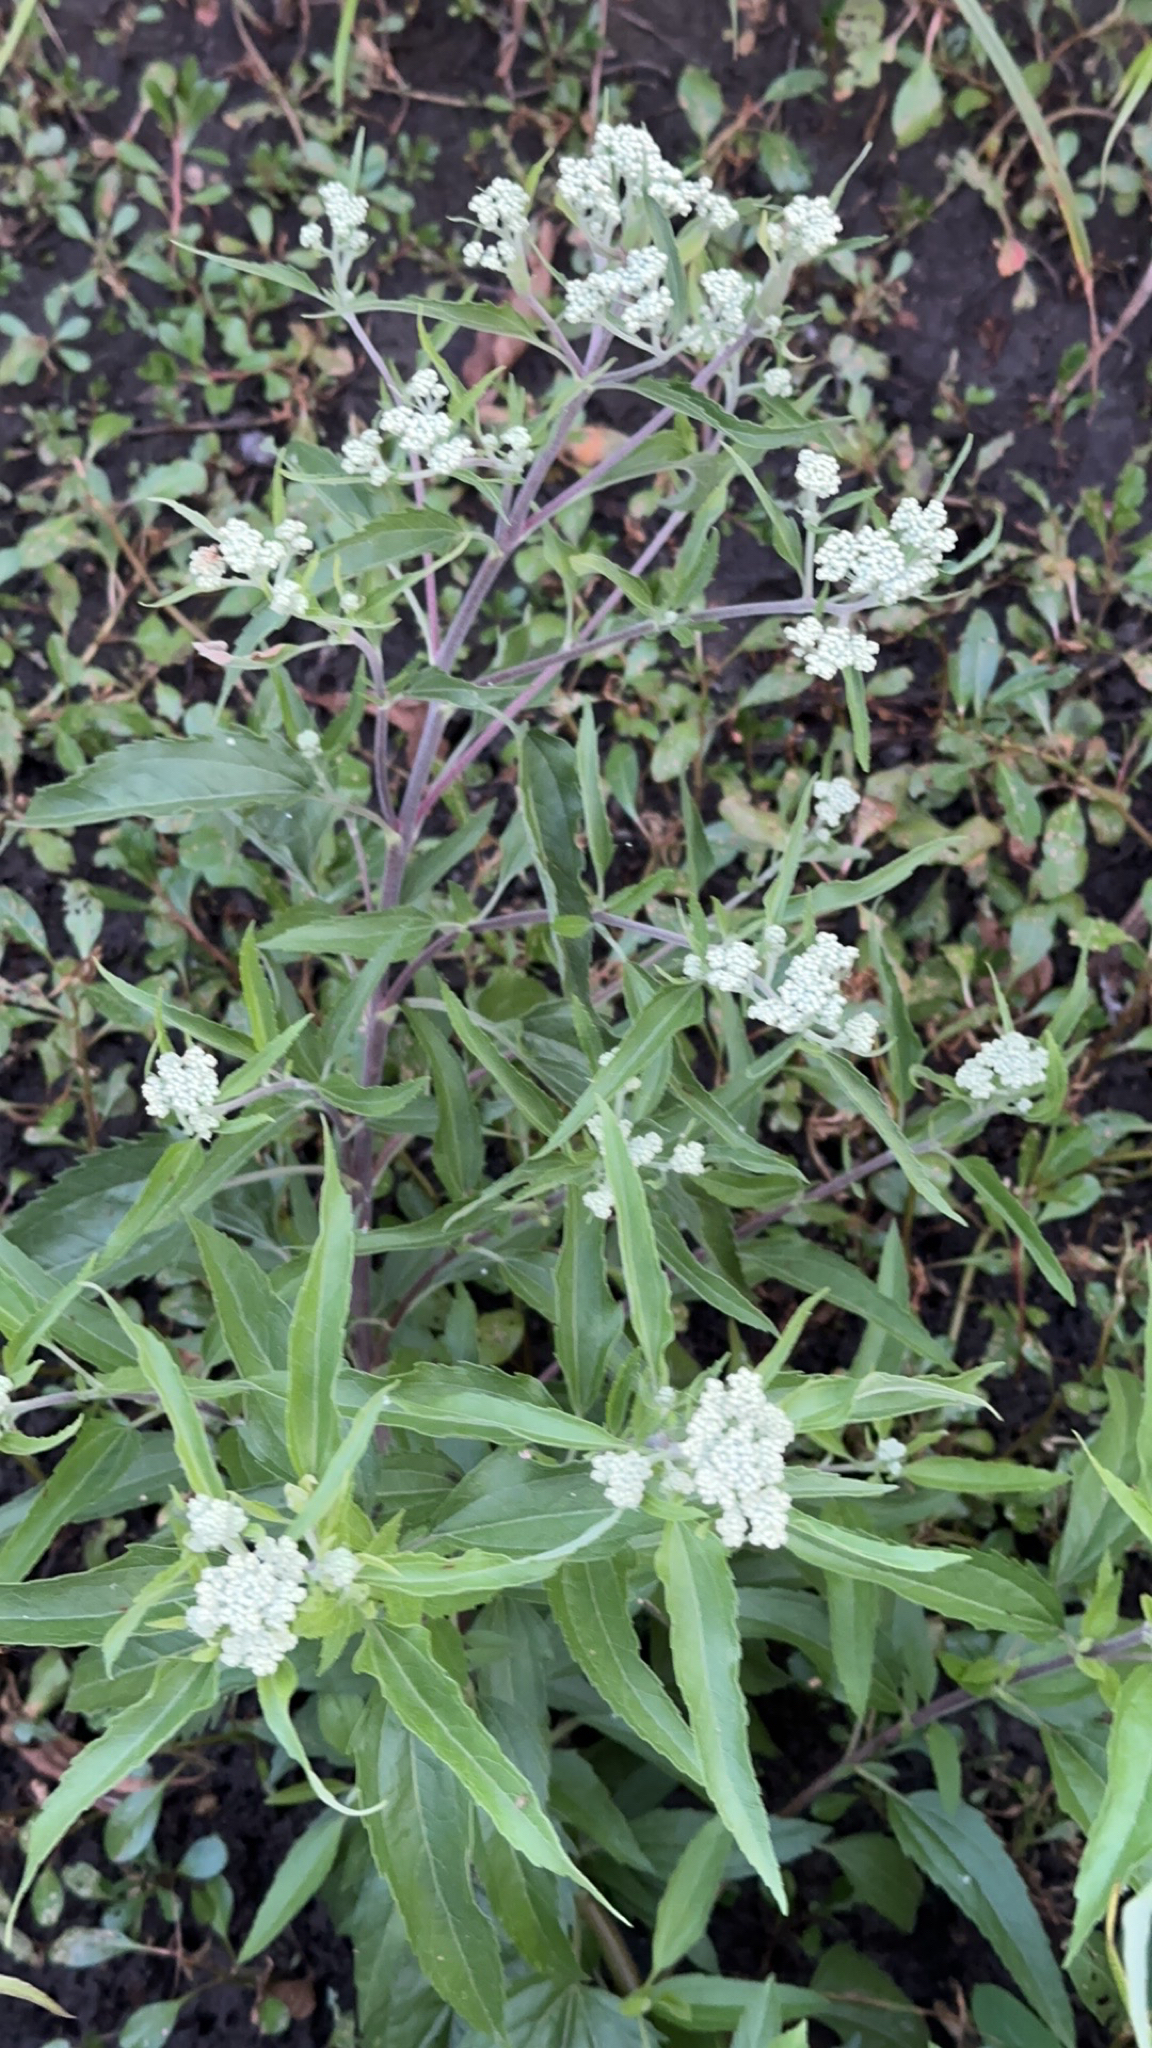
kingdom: Plantae
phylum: Tracheophyta
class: Magnoliopsida
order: Asterales
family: Asteraceae
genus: Eupatorium
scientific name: Eupatorium serotinum
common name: Late boneset
